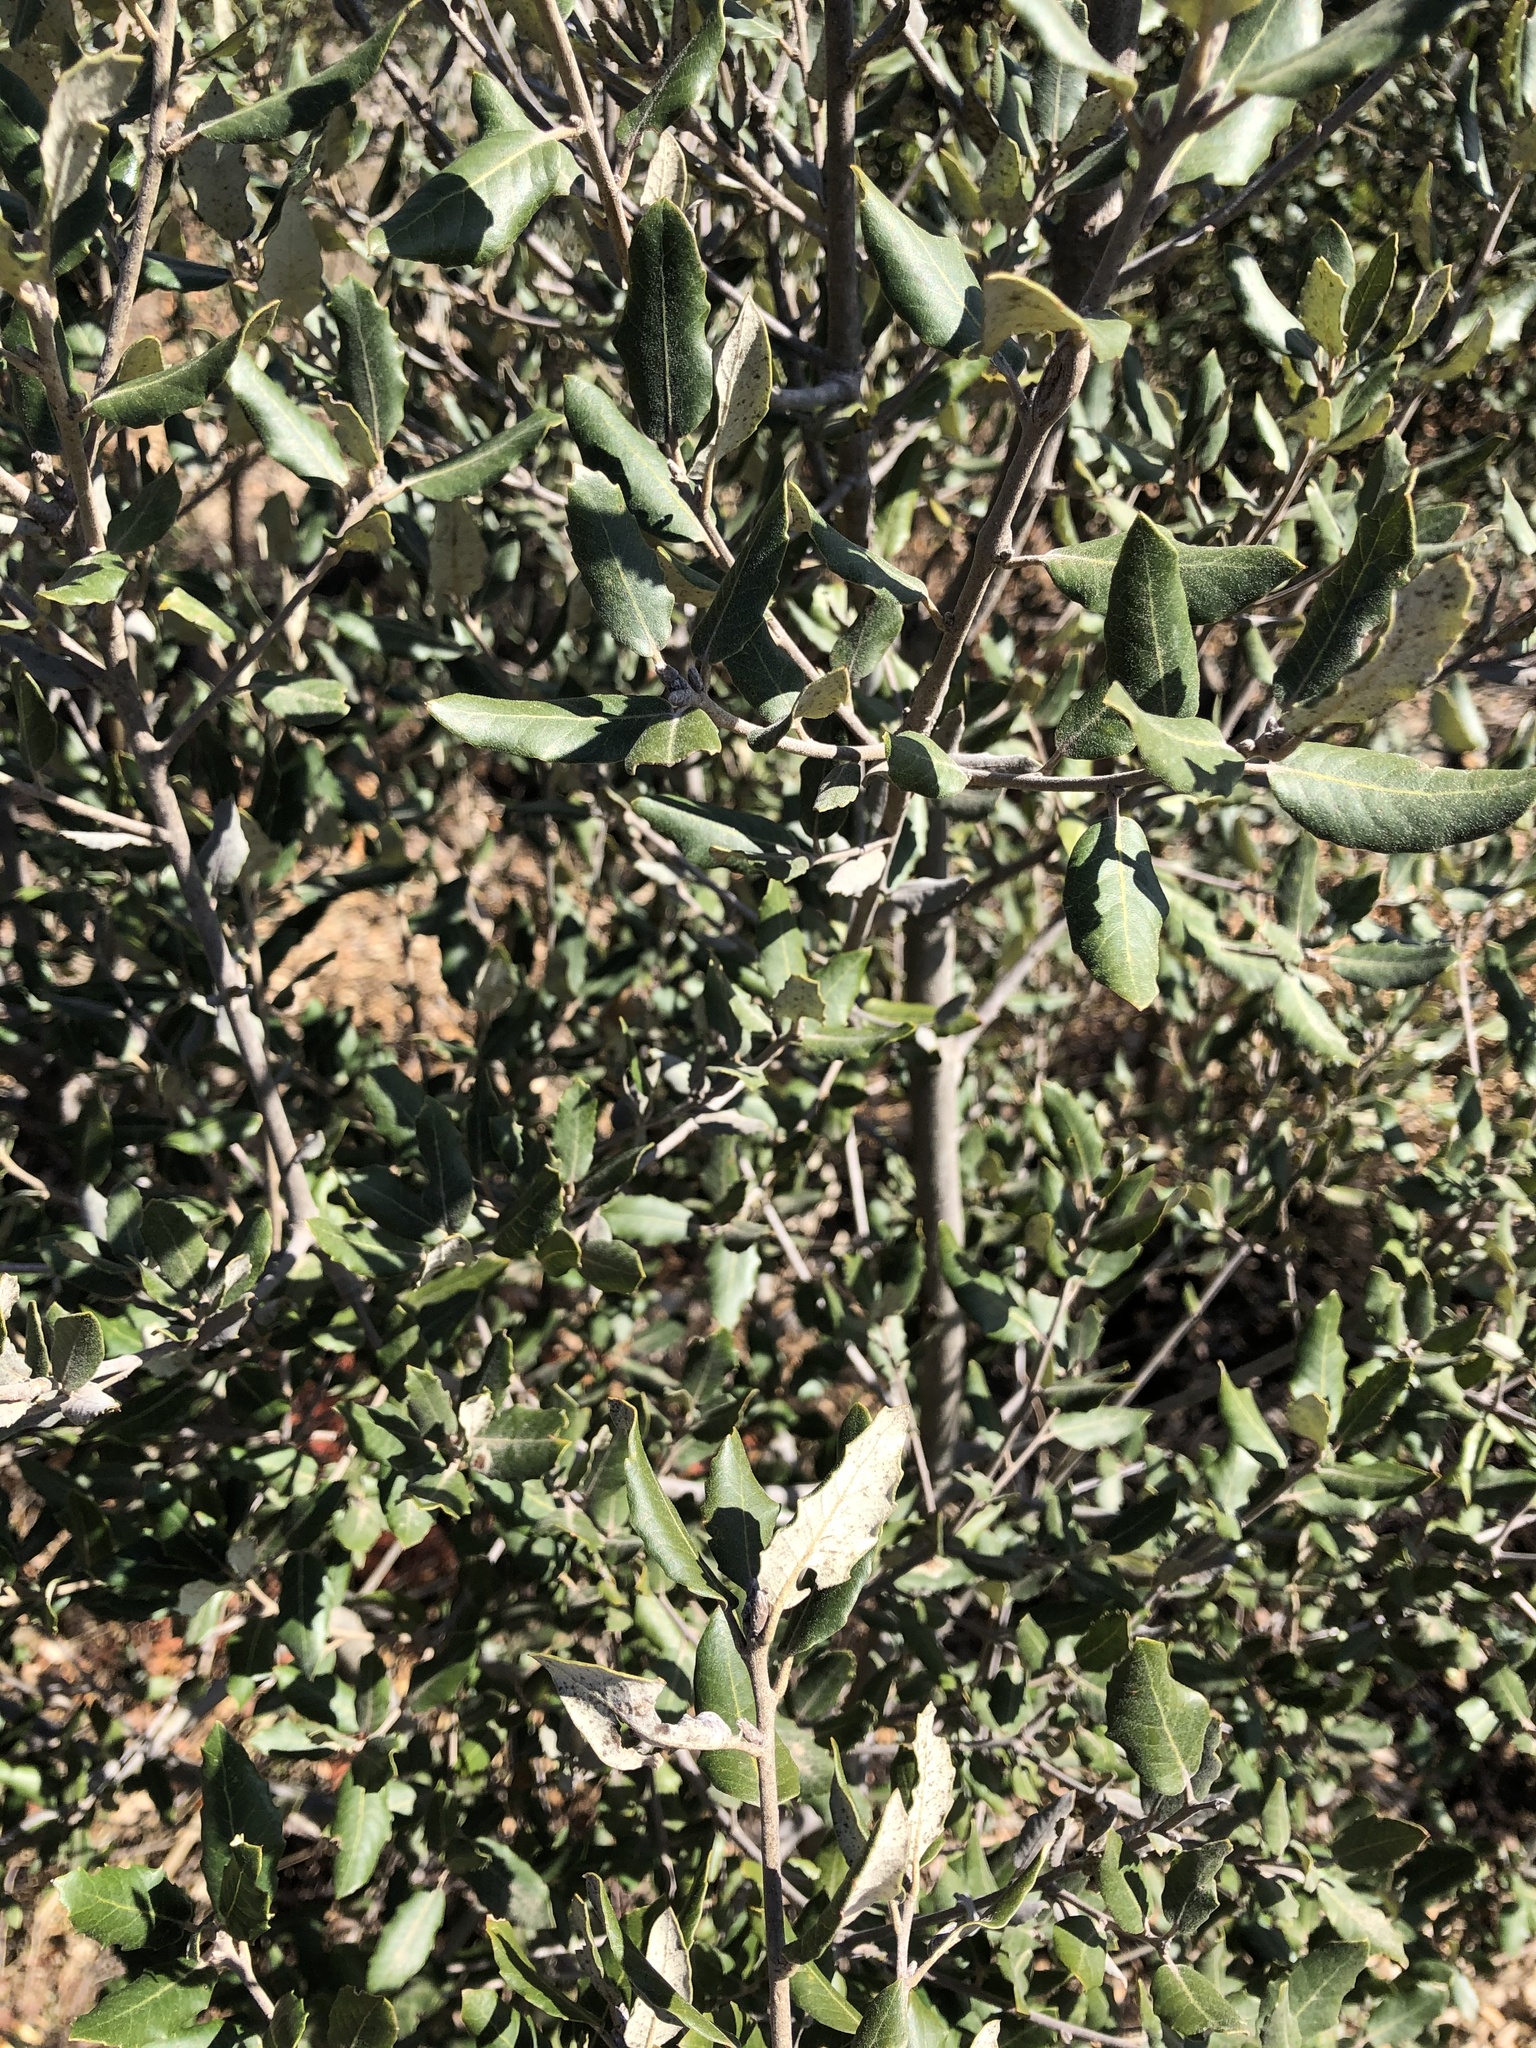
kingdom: Plantae
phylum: Tracheophyta
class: Magnoliopsida
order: Fagales
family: Fagaceae
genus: Quercus
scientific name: Quercus ilex
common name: Evergreen oak
